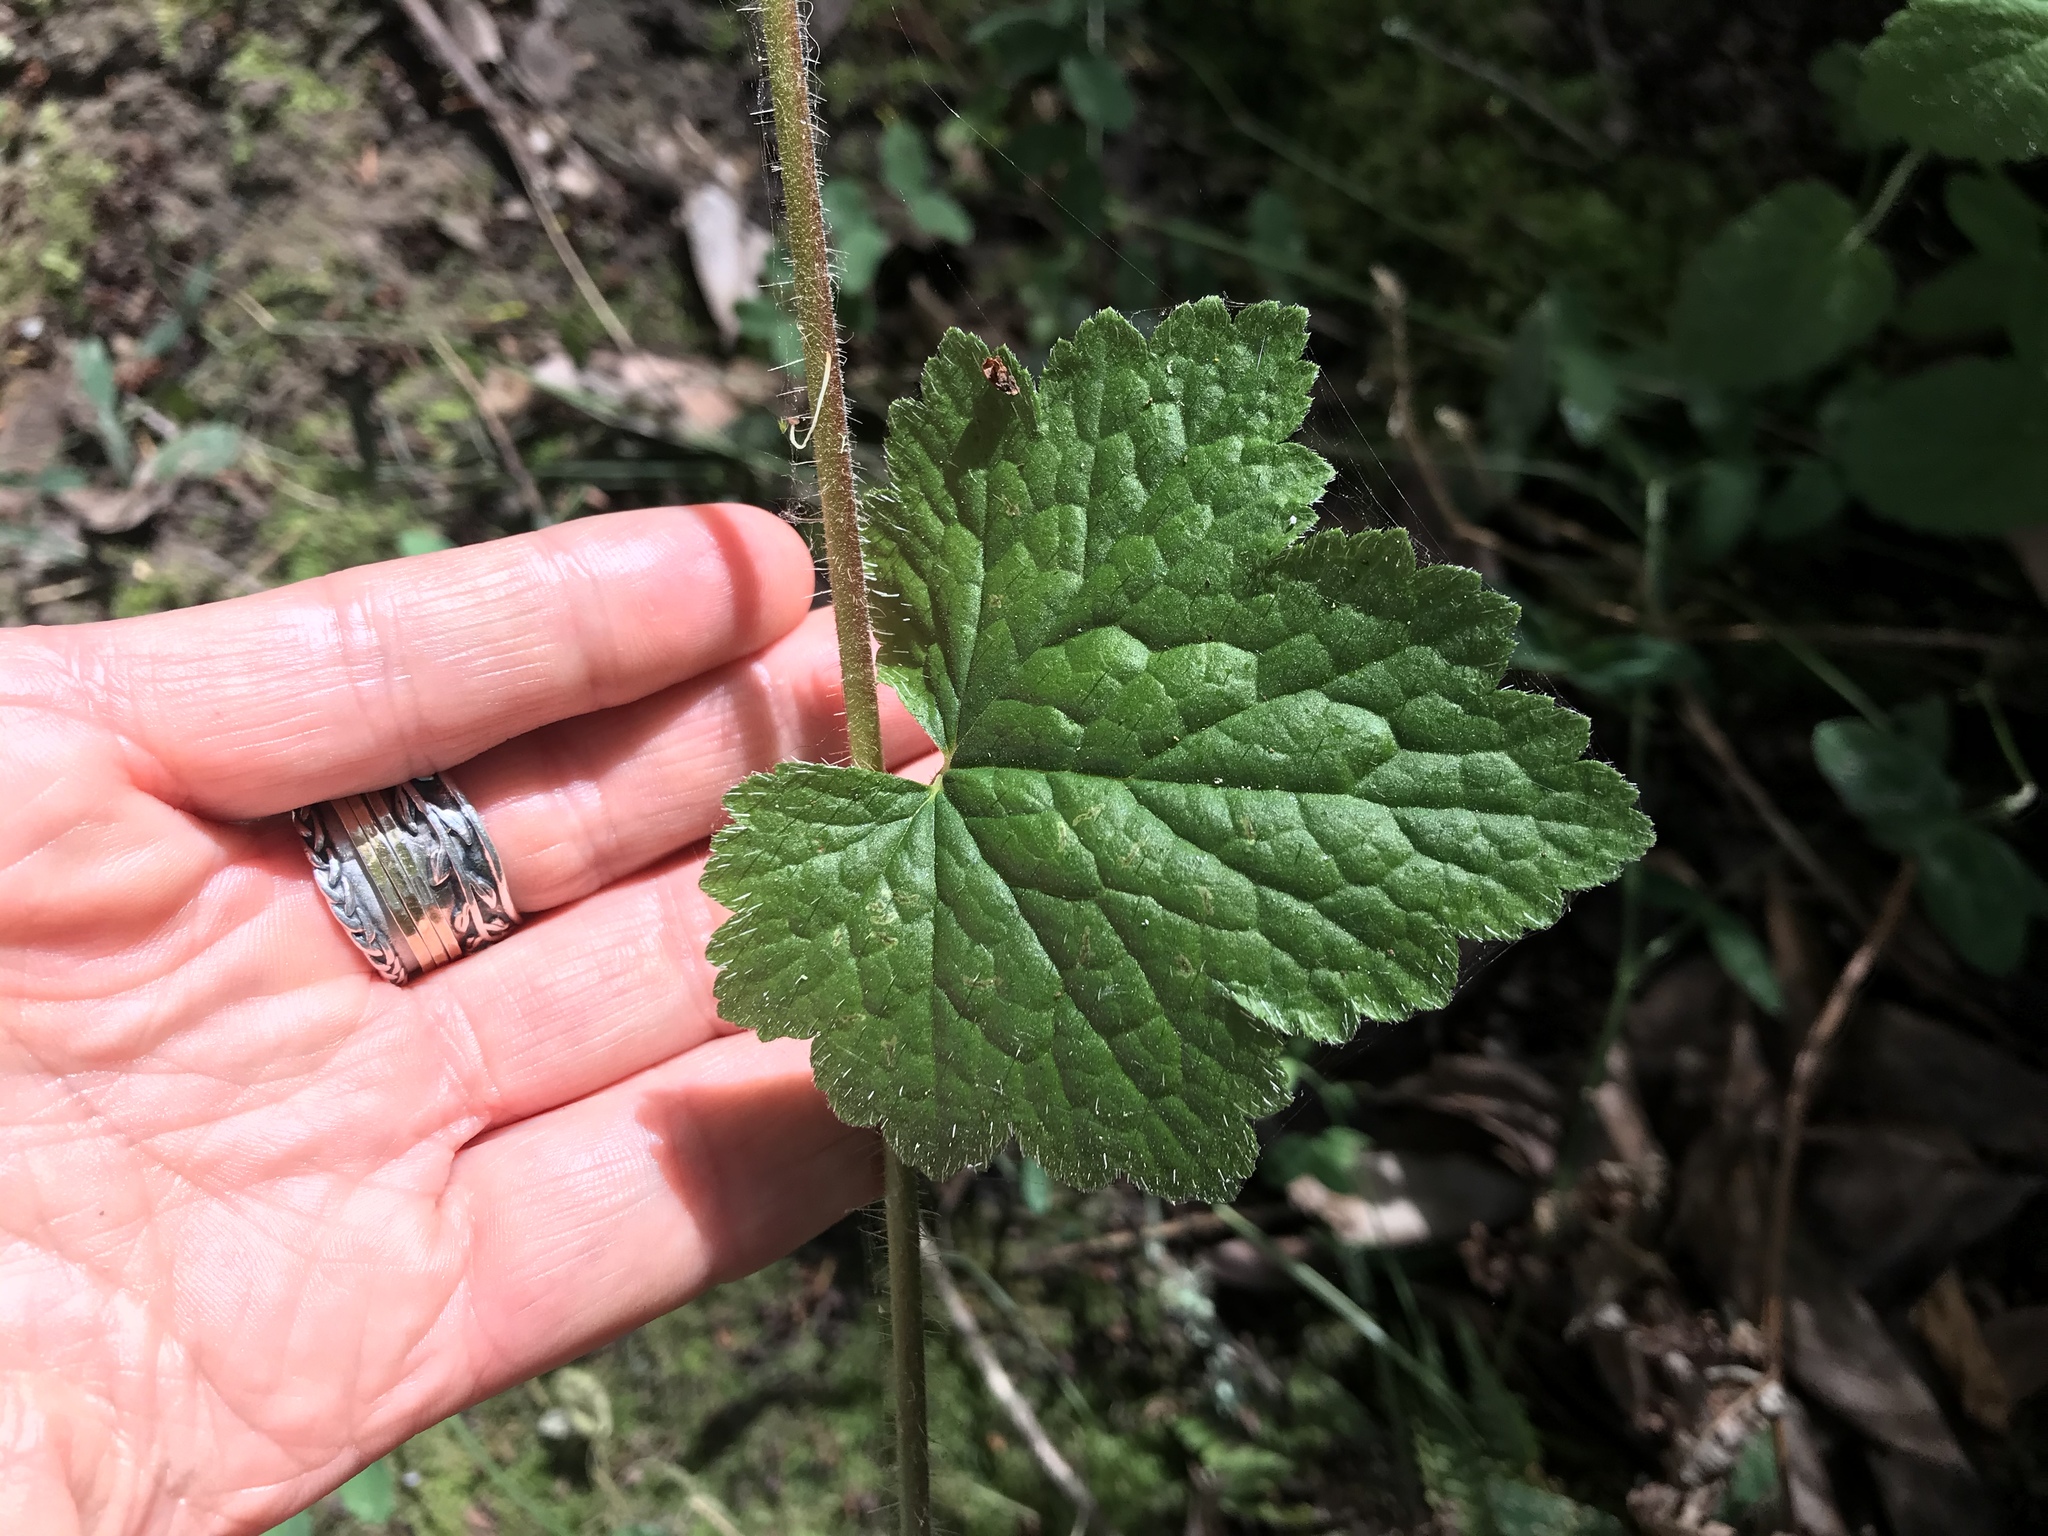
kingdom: Plantae
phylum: Tracheophyta
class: Magnoliopsida
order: Saxifragales
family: Saxifragaceae
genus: Tellima
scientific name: Tellima grandiflora
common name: Fringecups
